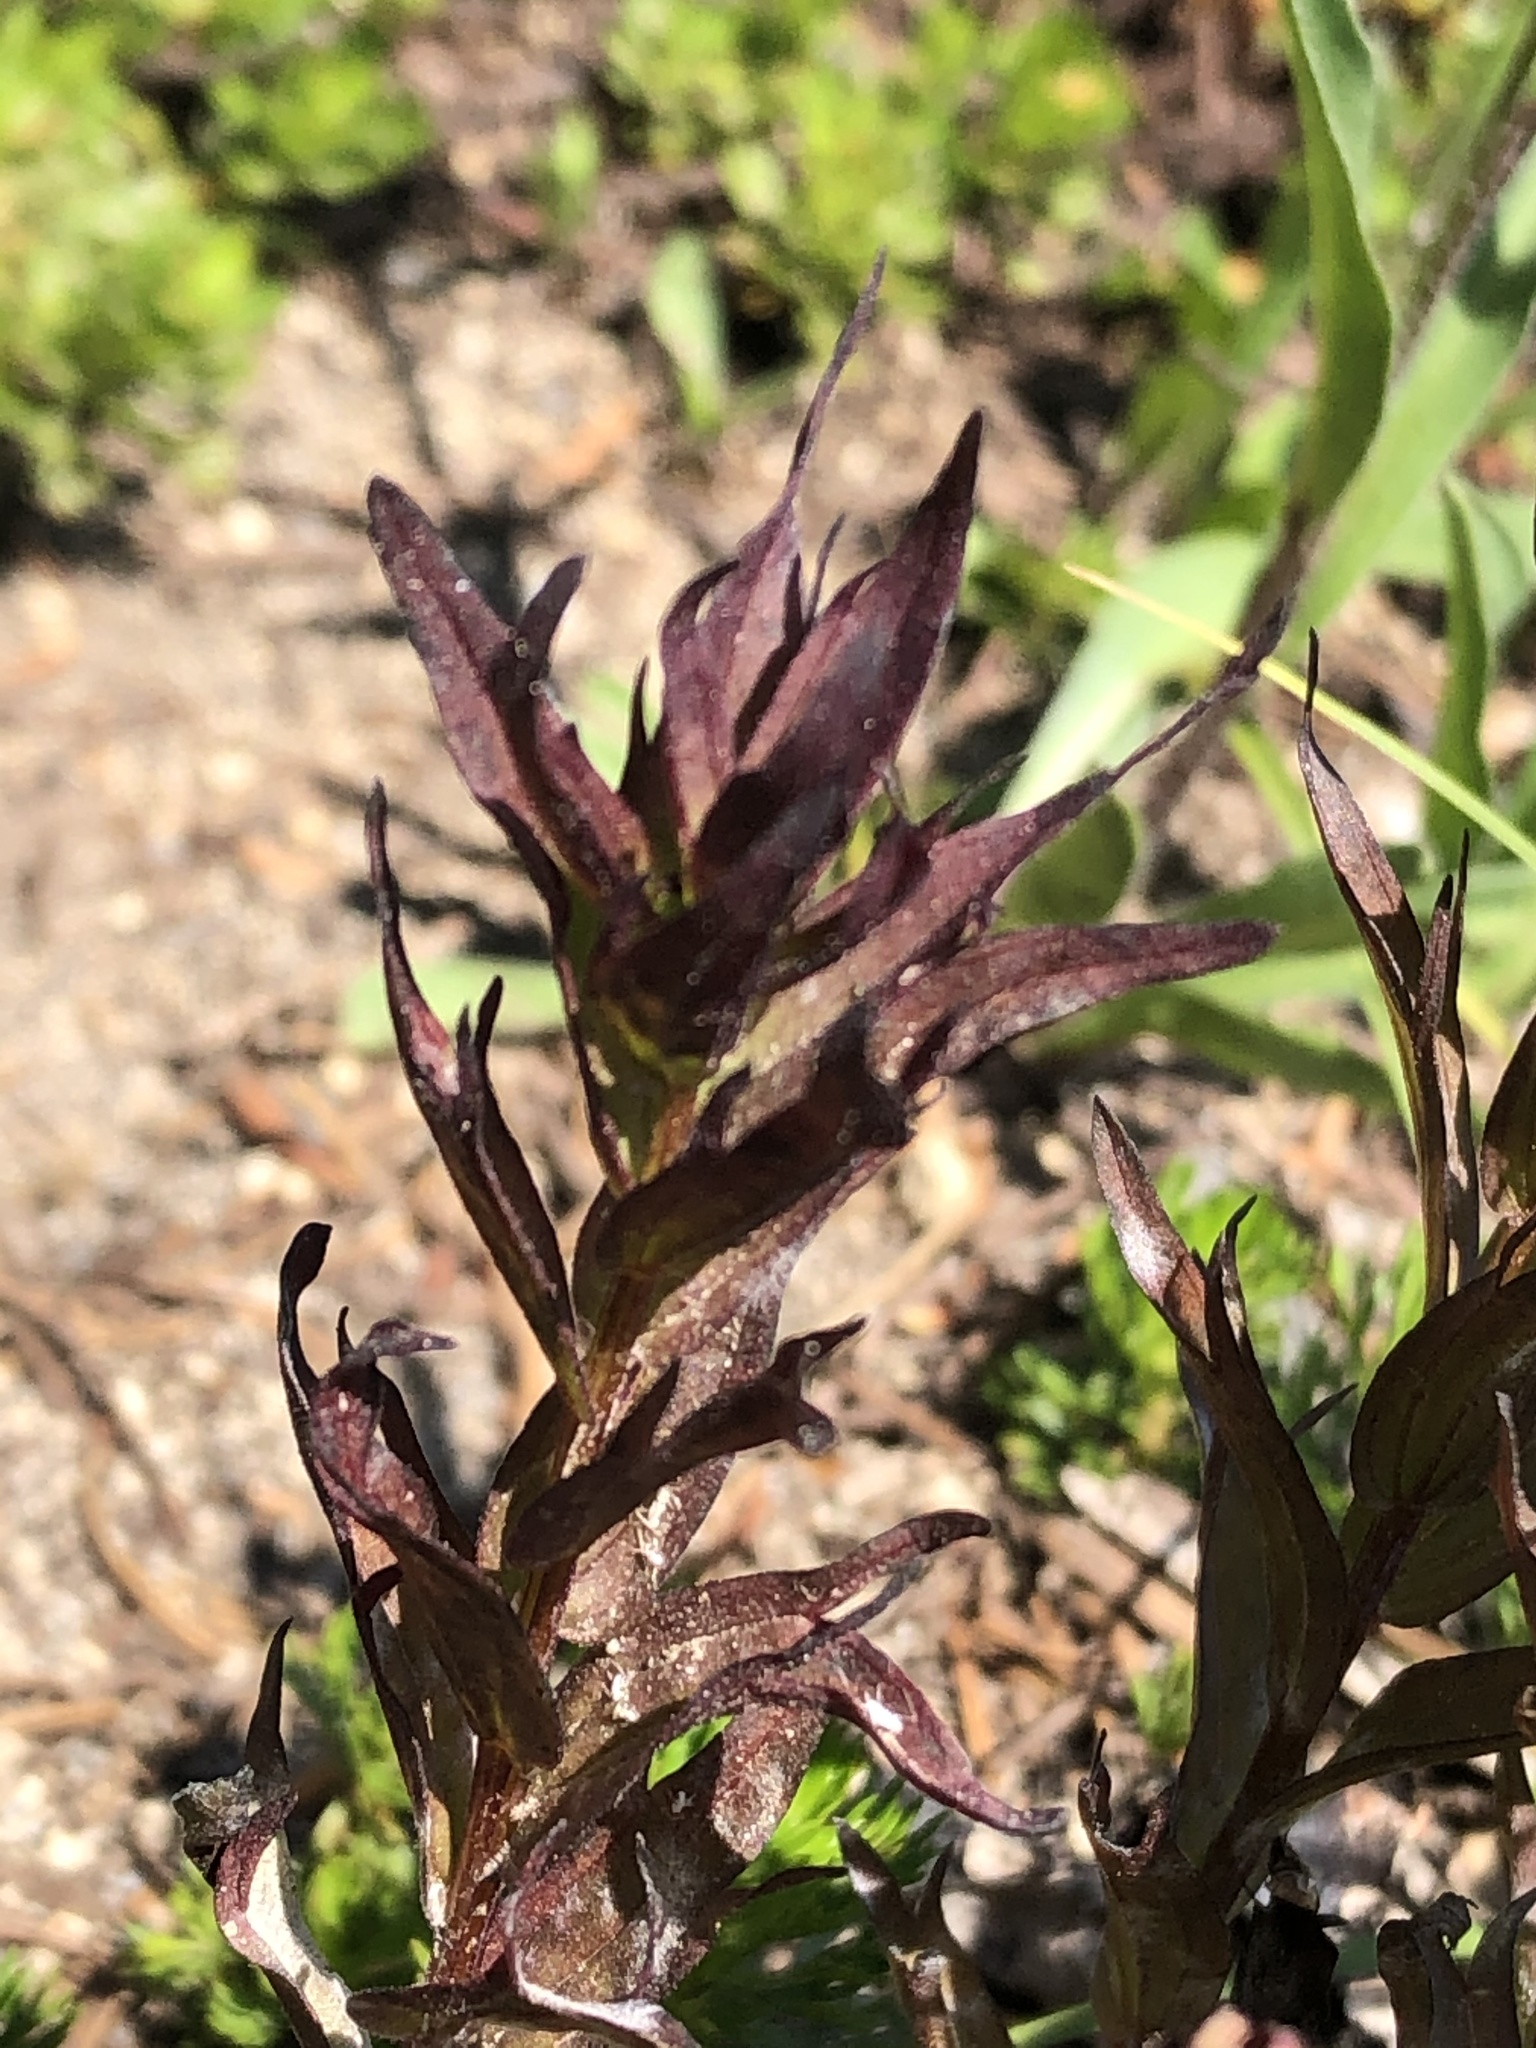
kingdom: Plantae
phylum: Tracheophyta
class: Magnoliopsida
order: Lamiales
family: Orobanchaceae
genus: Castilleja
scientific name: Castilleja parviflora
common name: Mountain paintbrush
